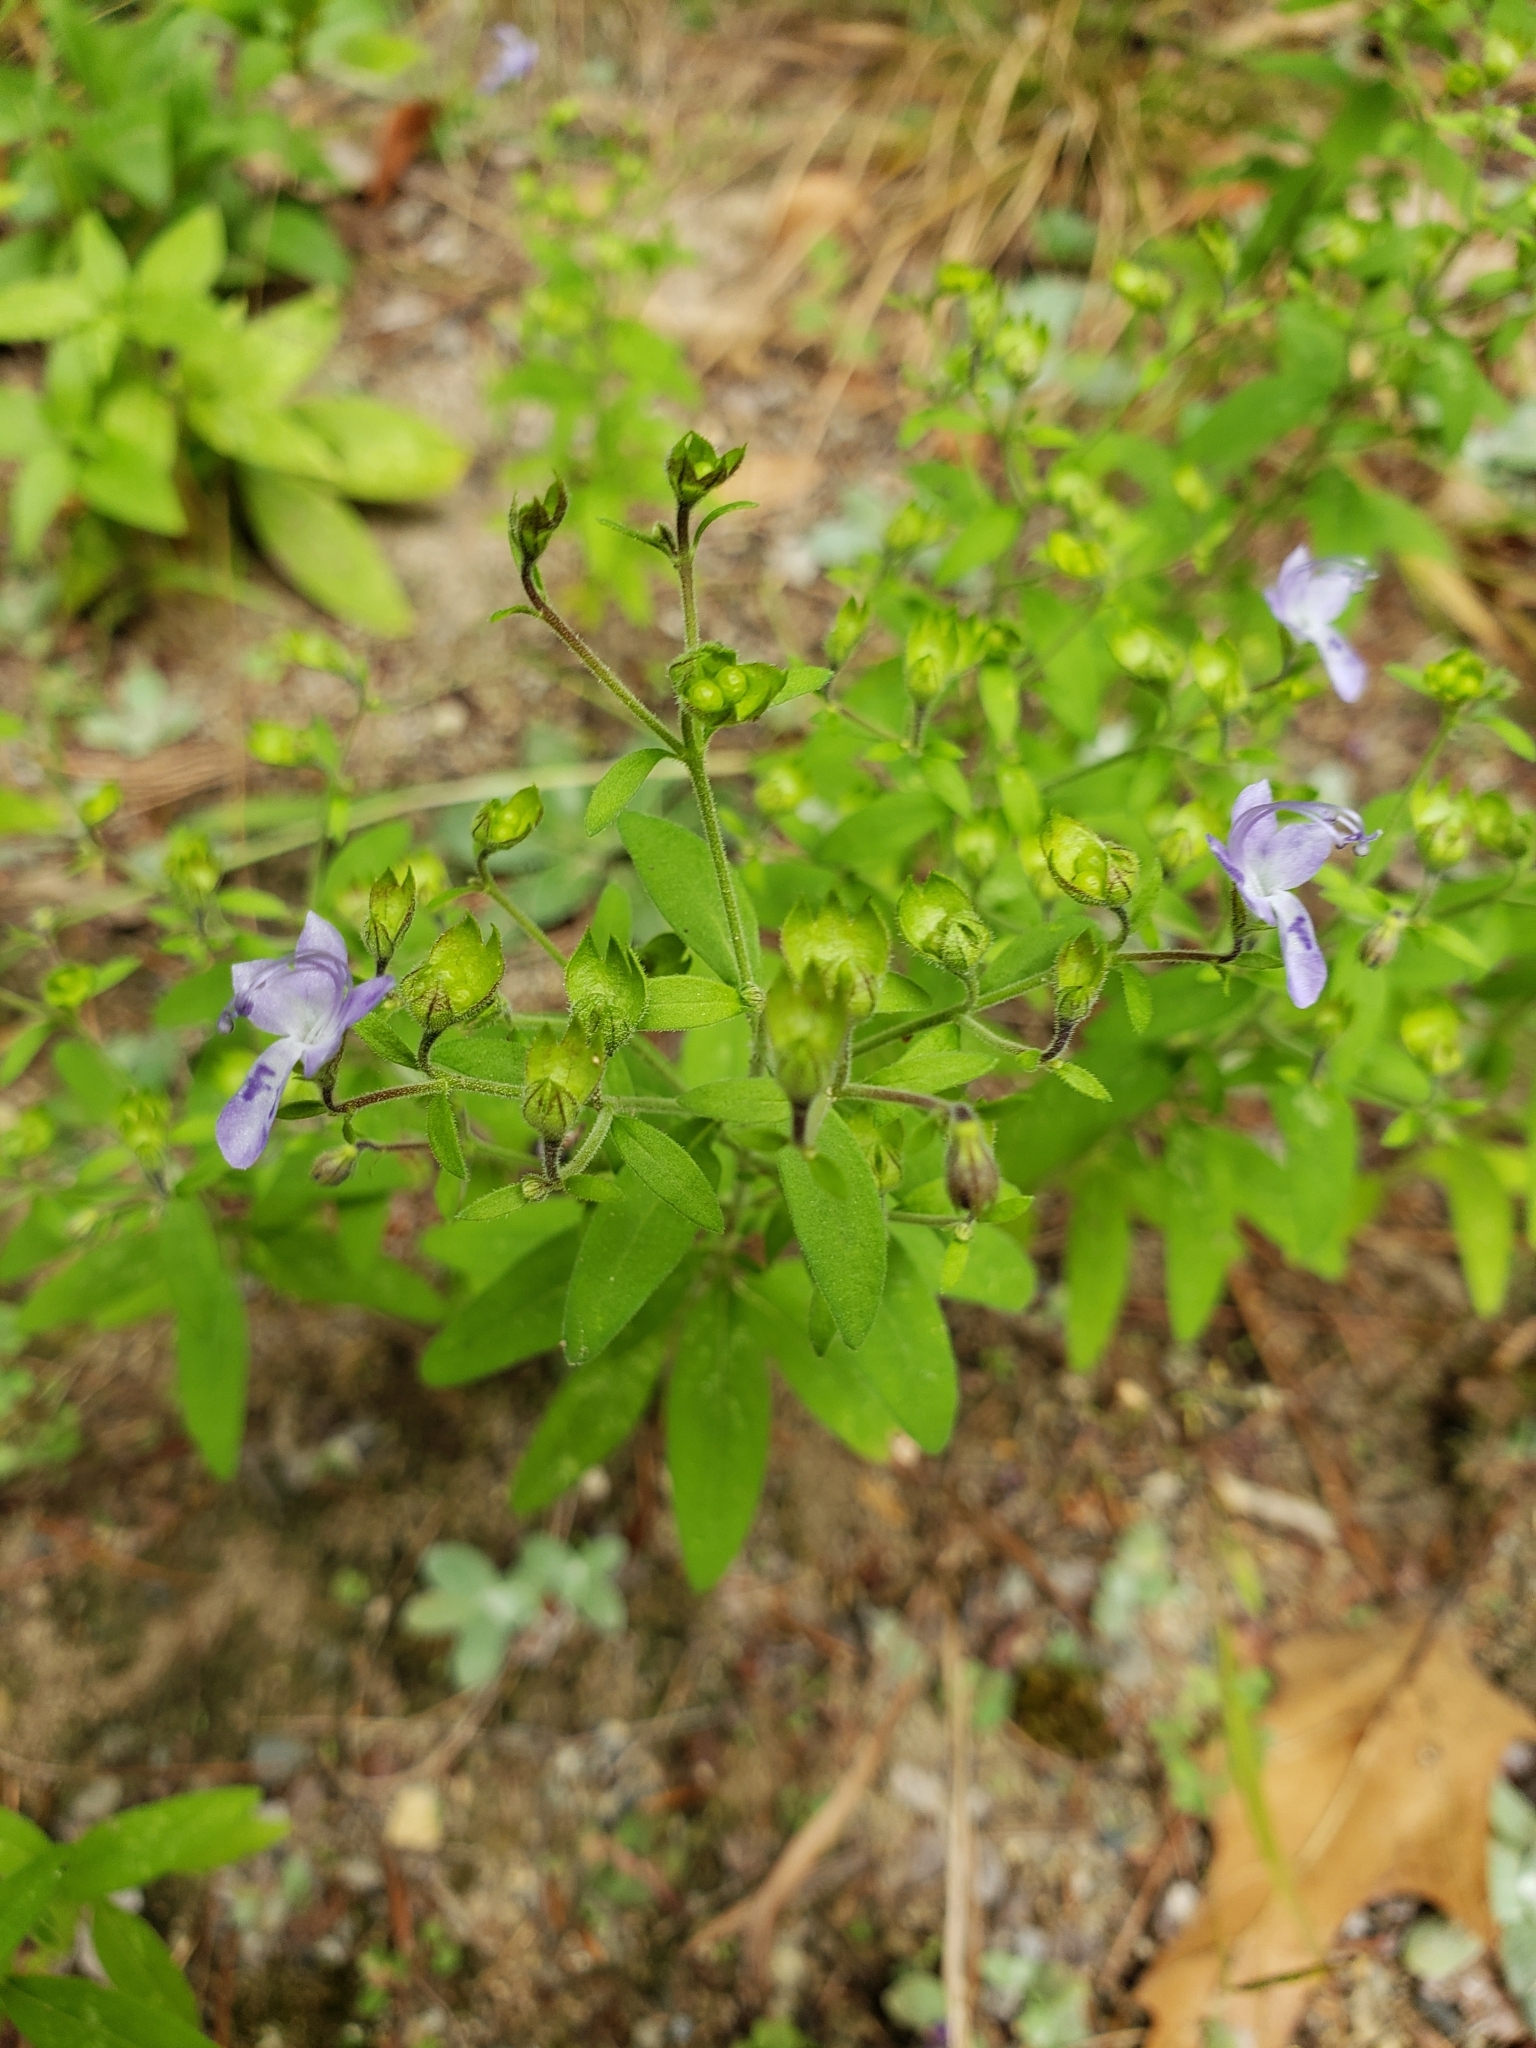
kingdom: Plantae
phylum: Tracheophyta
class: Magnoliopsida
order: Lamiales
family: Lamiaceae
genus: Trichostema
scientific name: Trichostema dichotomum
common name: Bastard pennyroyal
